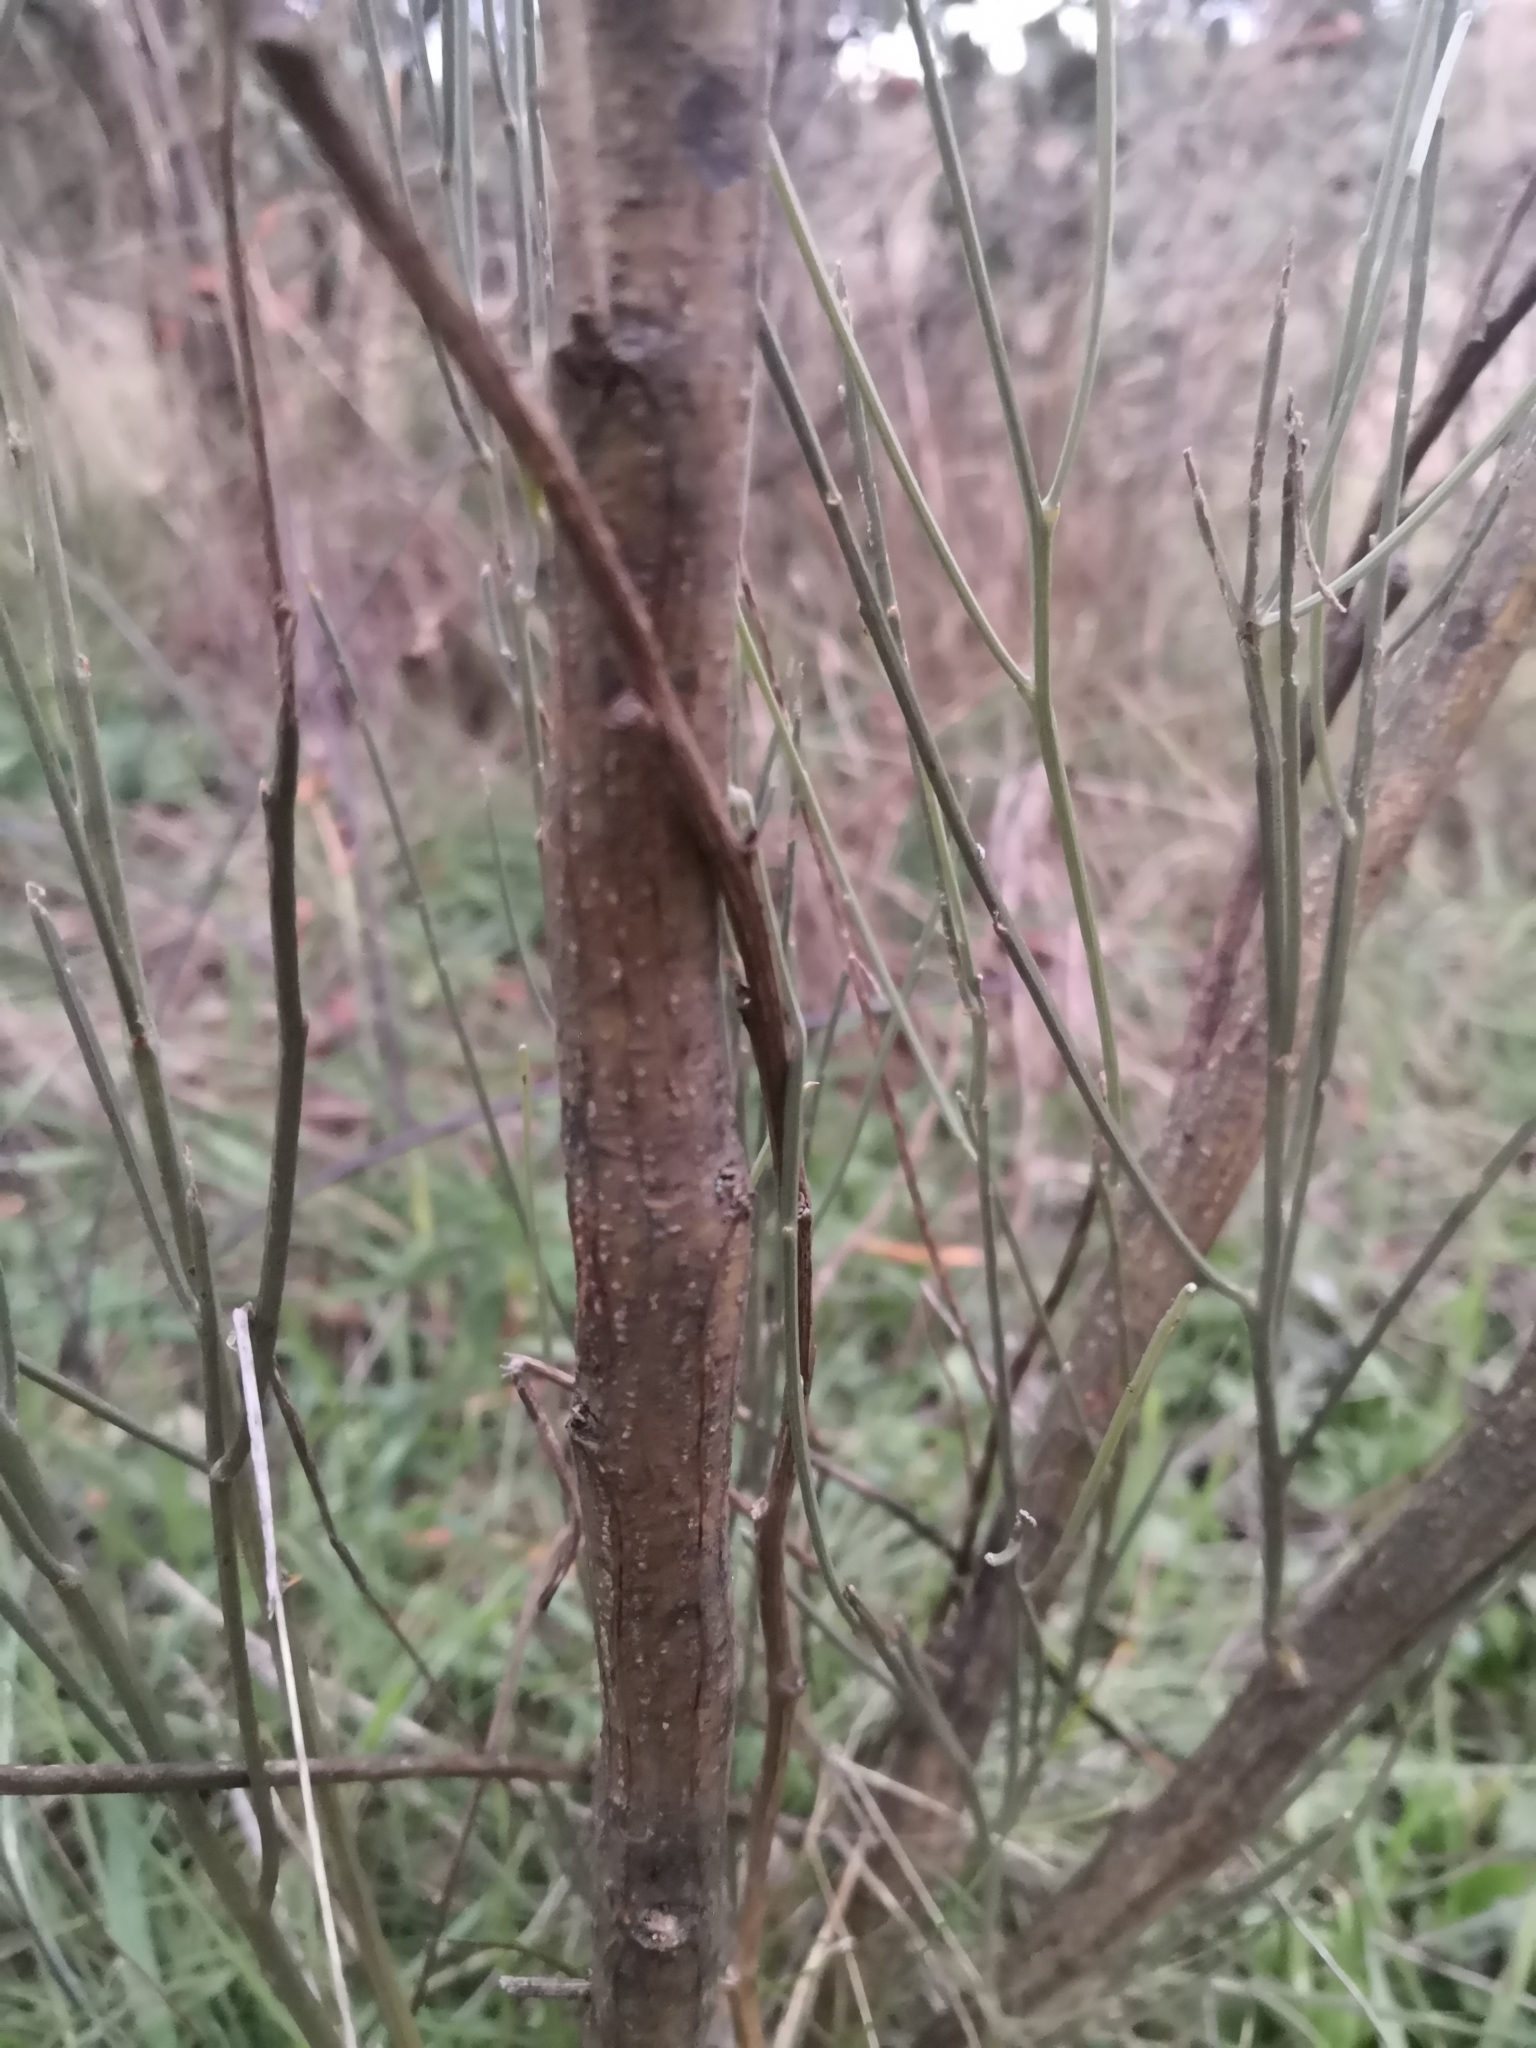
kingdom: Plantae
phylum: Tracheophyta
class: Magnoliopsida
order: Fabales
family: Fabaceae
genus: Retama
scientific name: Retama sphaerocarpa
